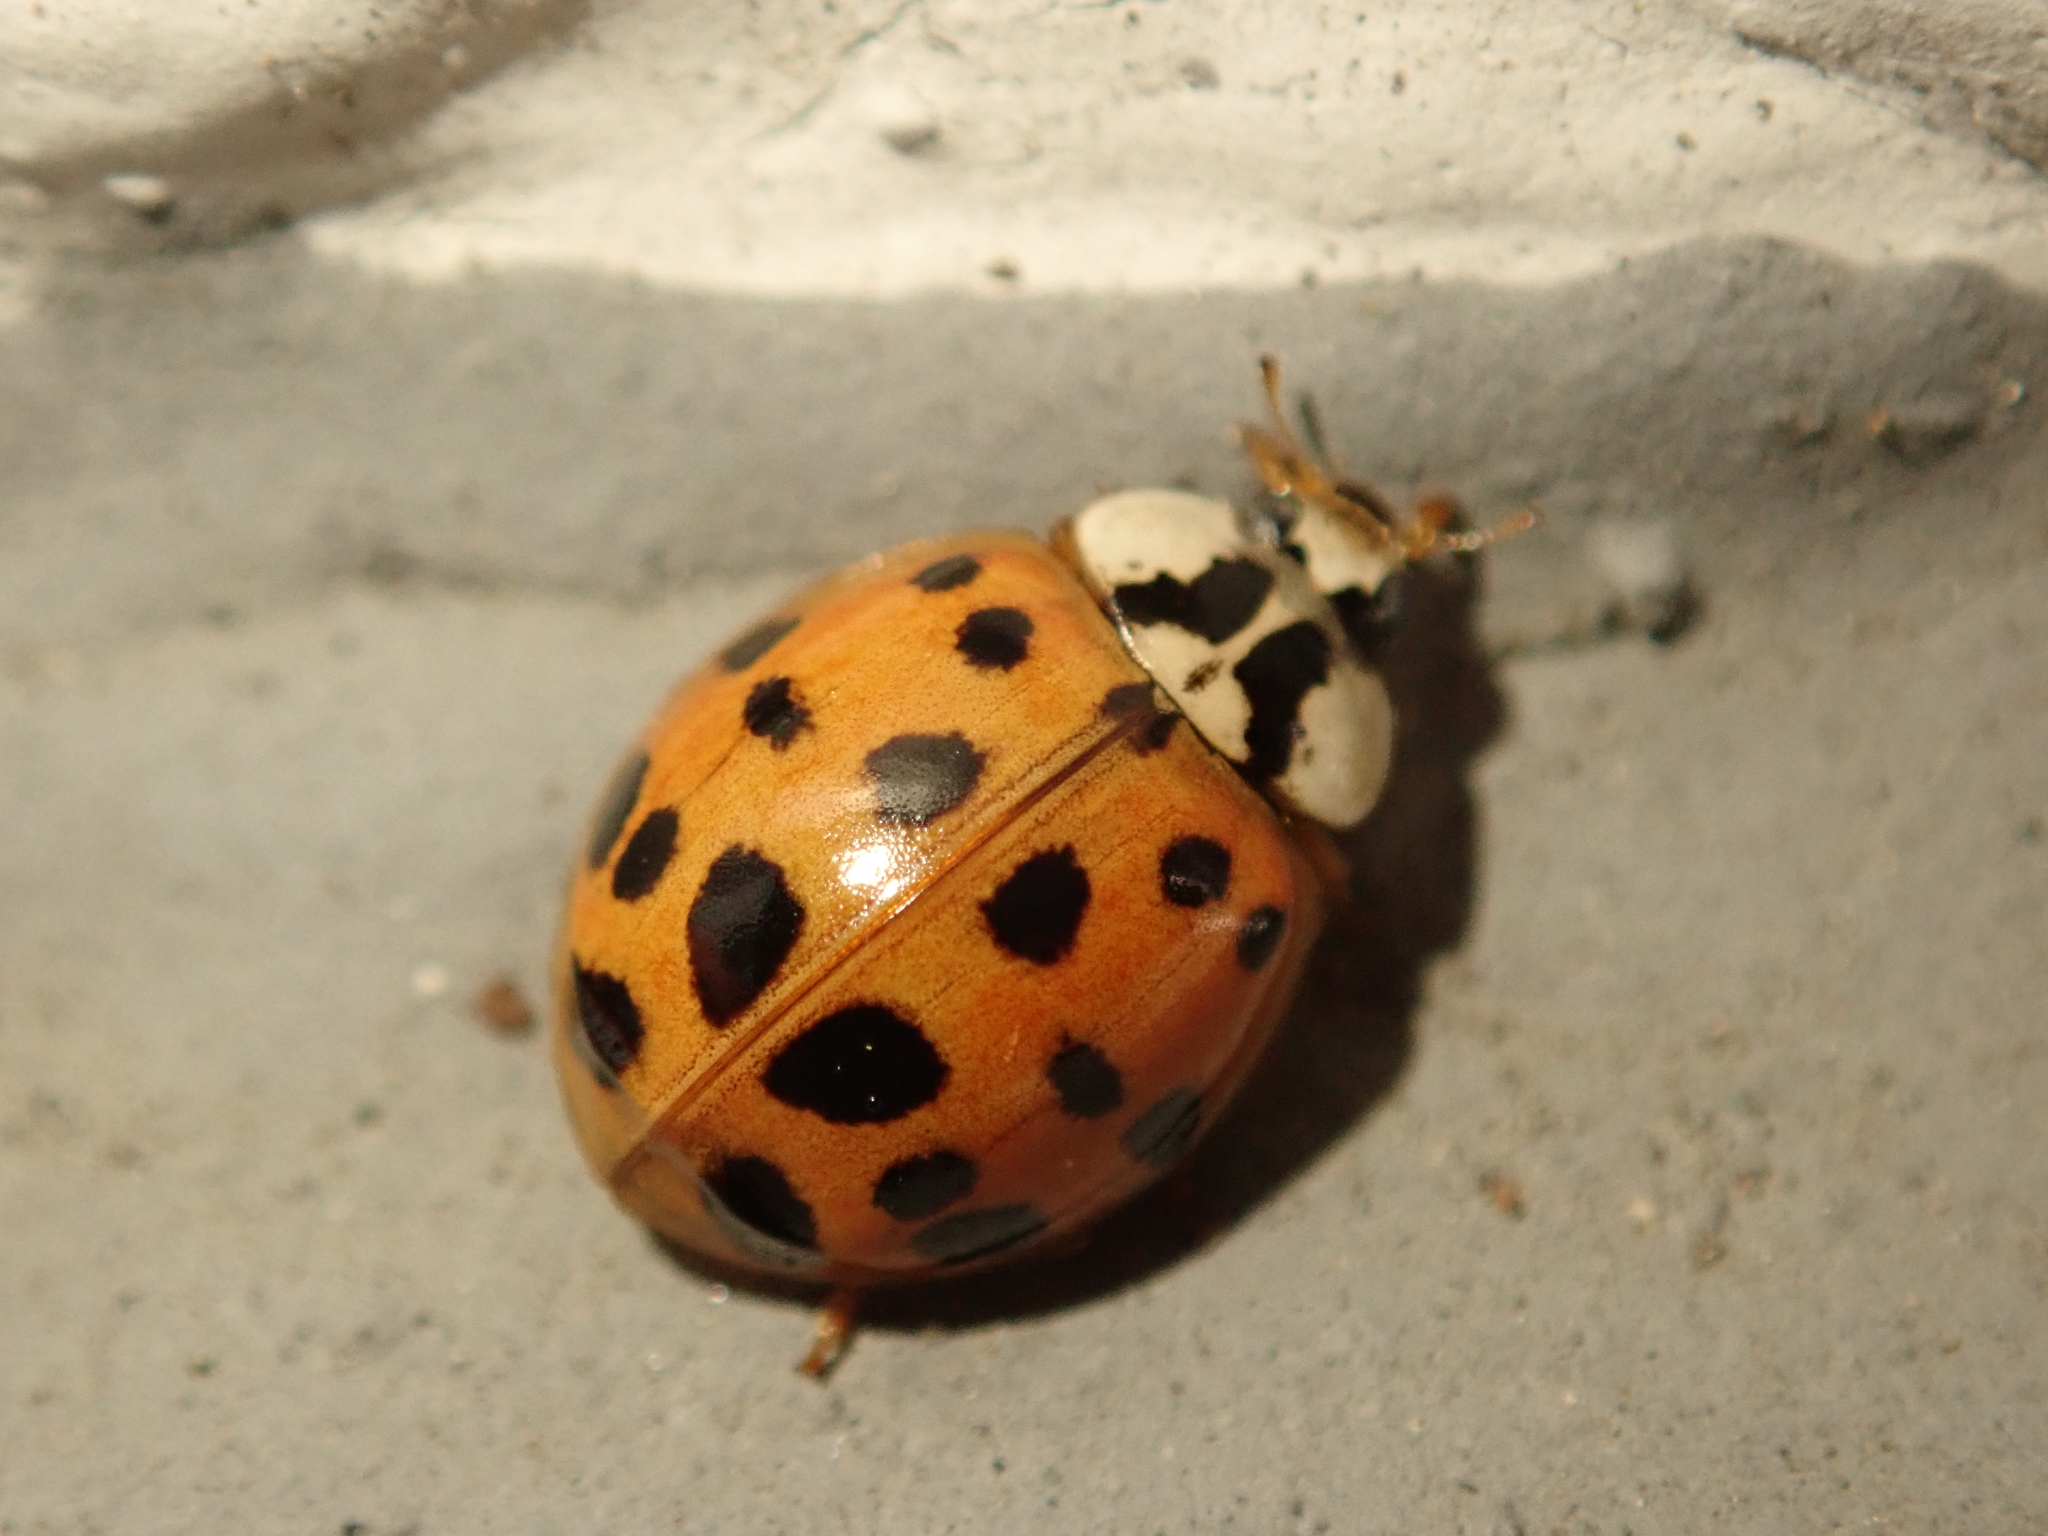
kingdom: Animalia
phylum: Arthropoda
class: Insecta
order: Coleoptera
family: Coccinellidae
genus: Harmonia
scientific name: Harmonia axyridis
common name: Harlequin ladybird
